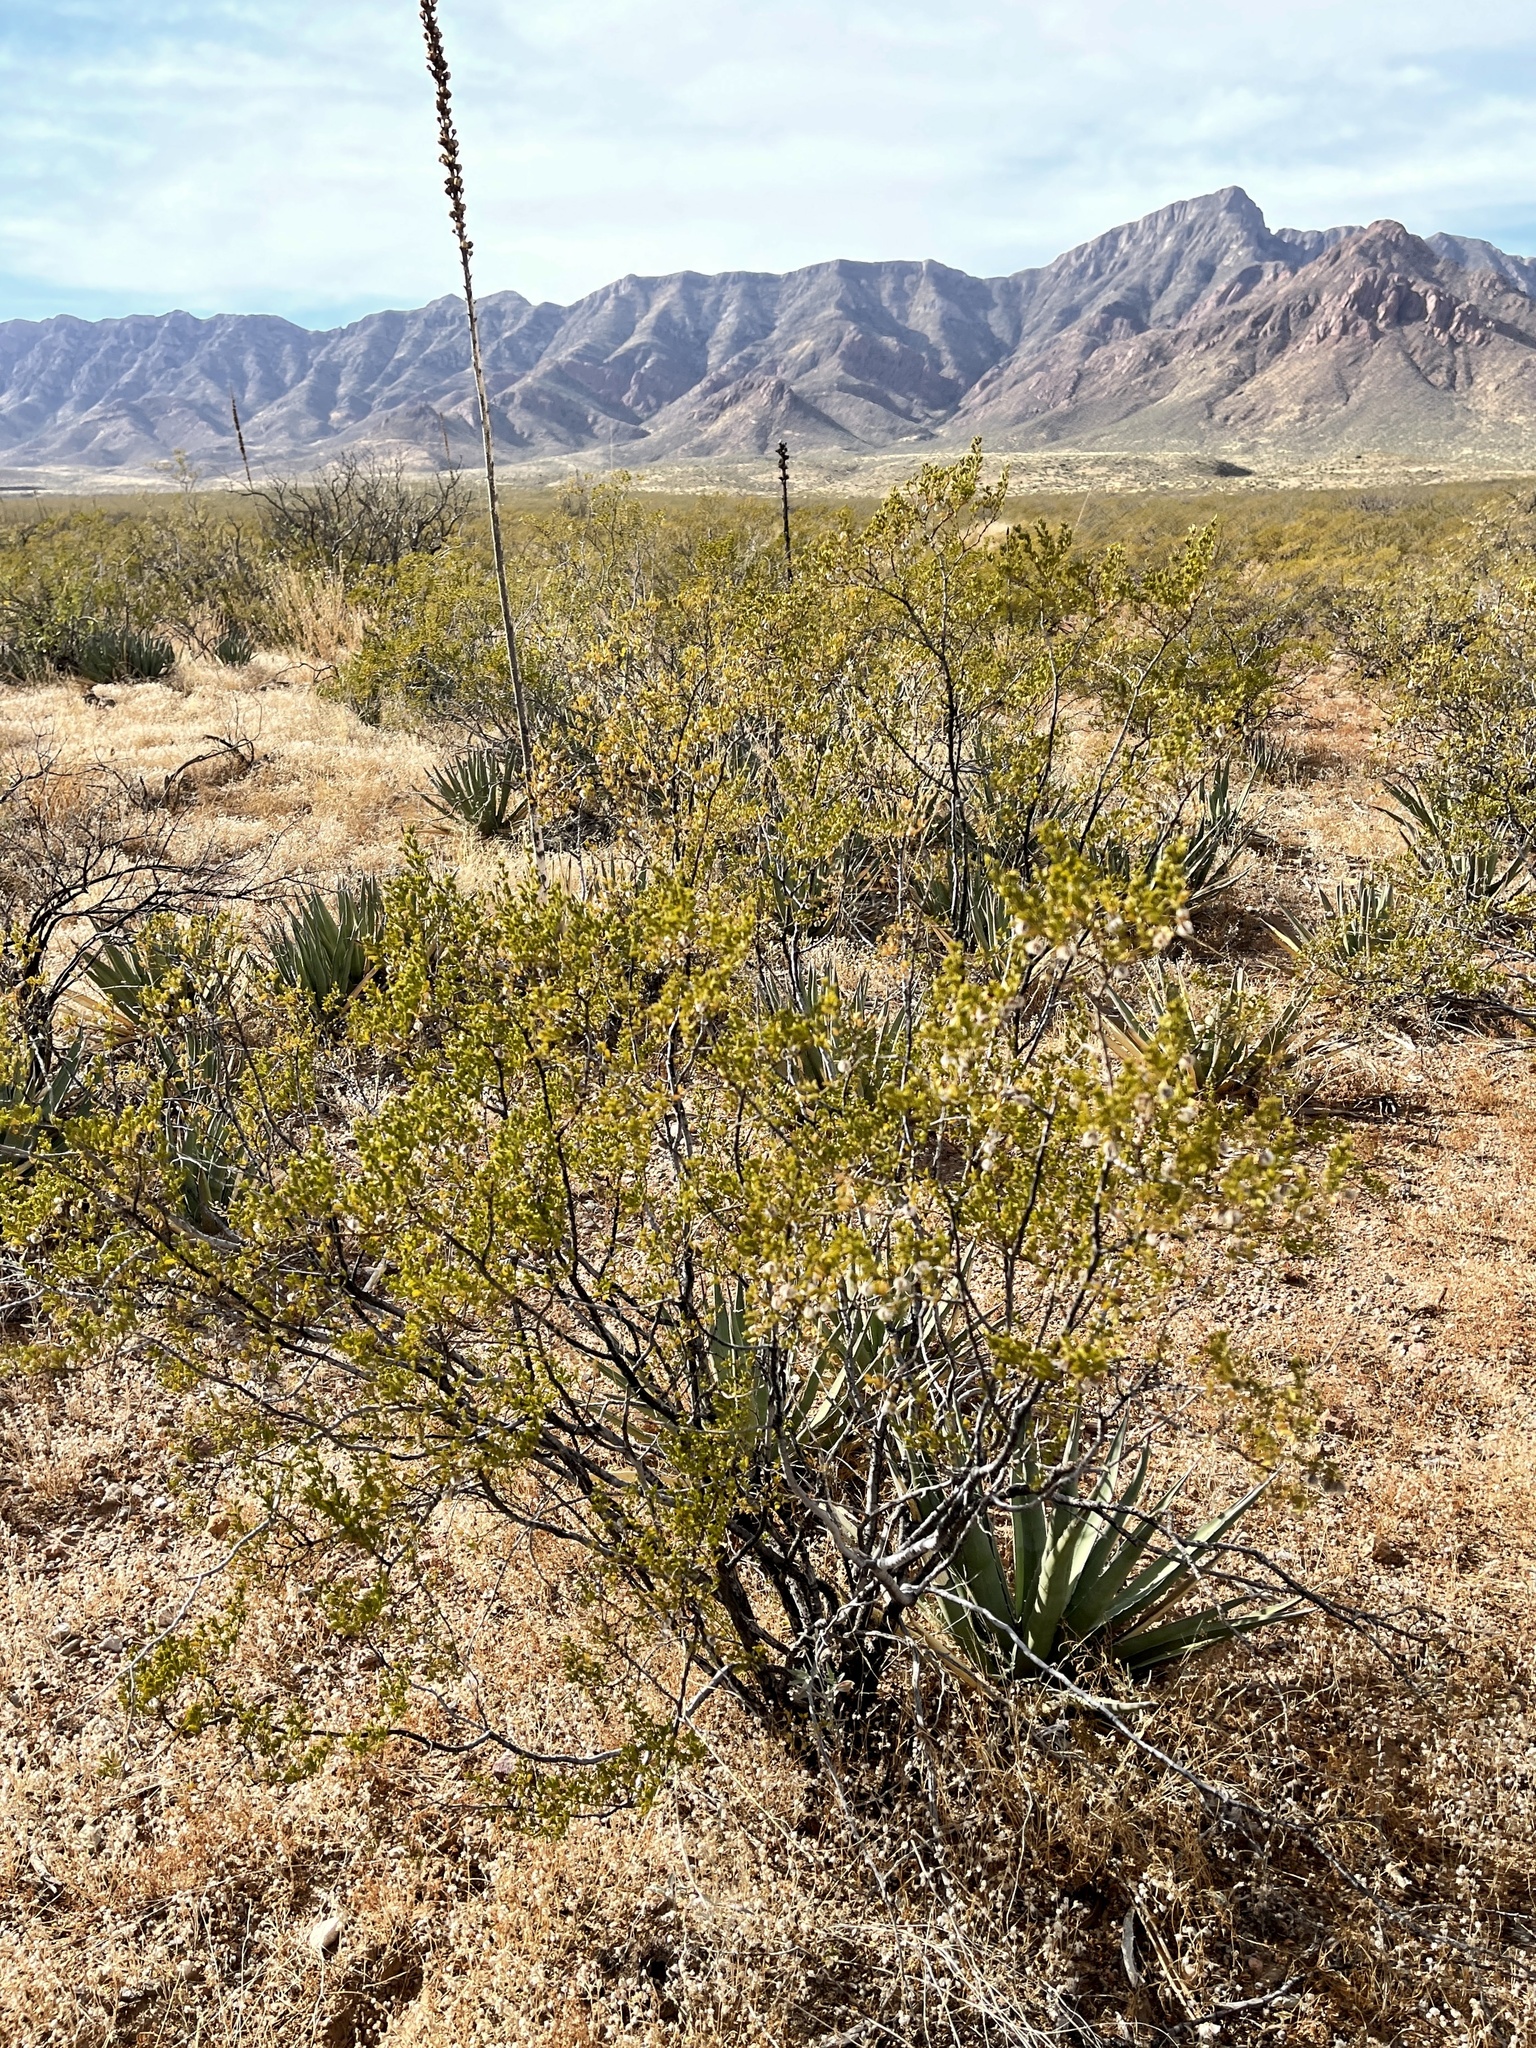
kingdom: Plantae
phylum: Tracheophyta
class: Magnoliopsida
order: Zygophyllales
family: Zygophyllaceae
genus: Larrea
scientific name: Larrea tridentata
